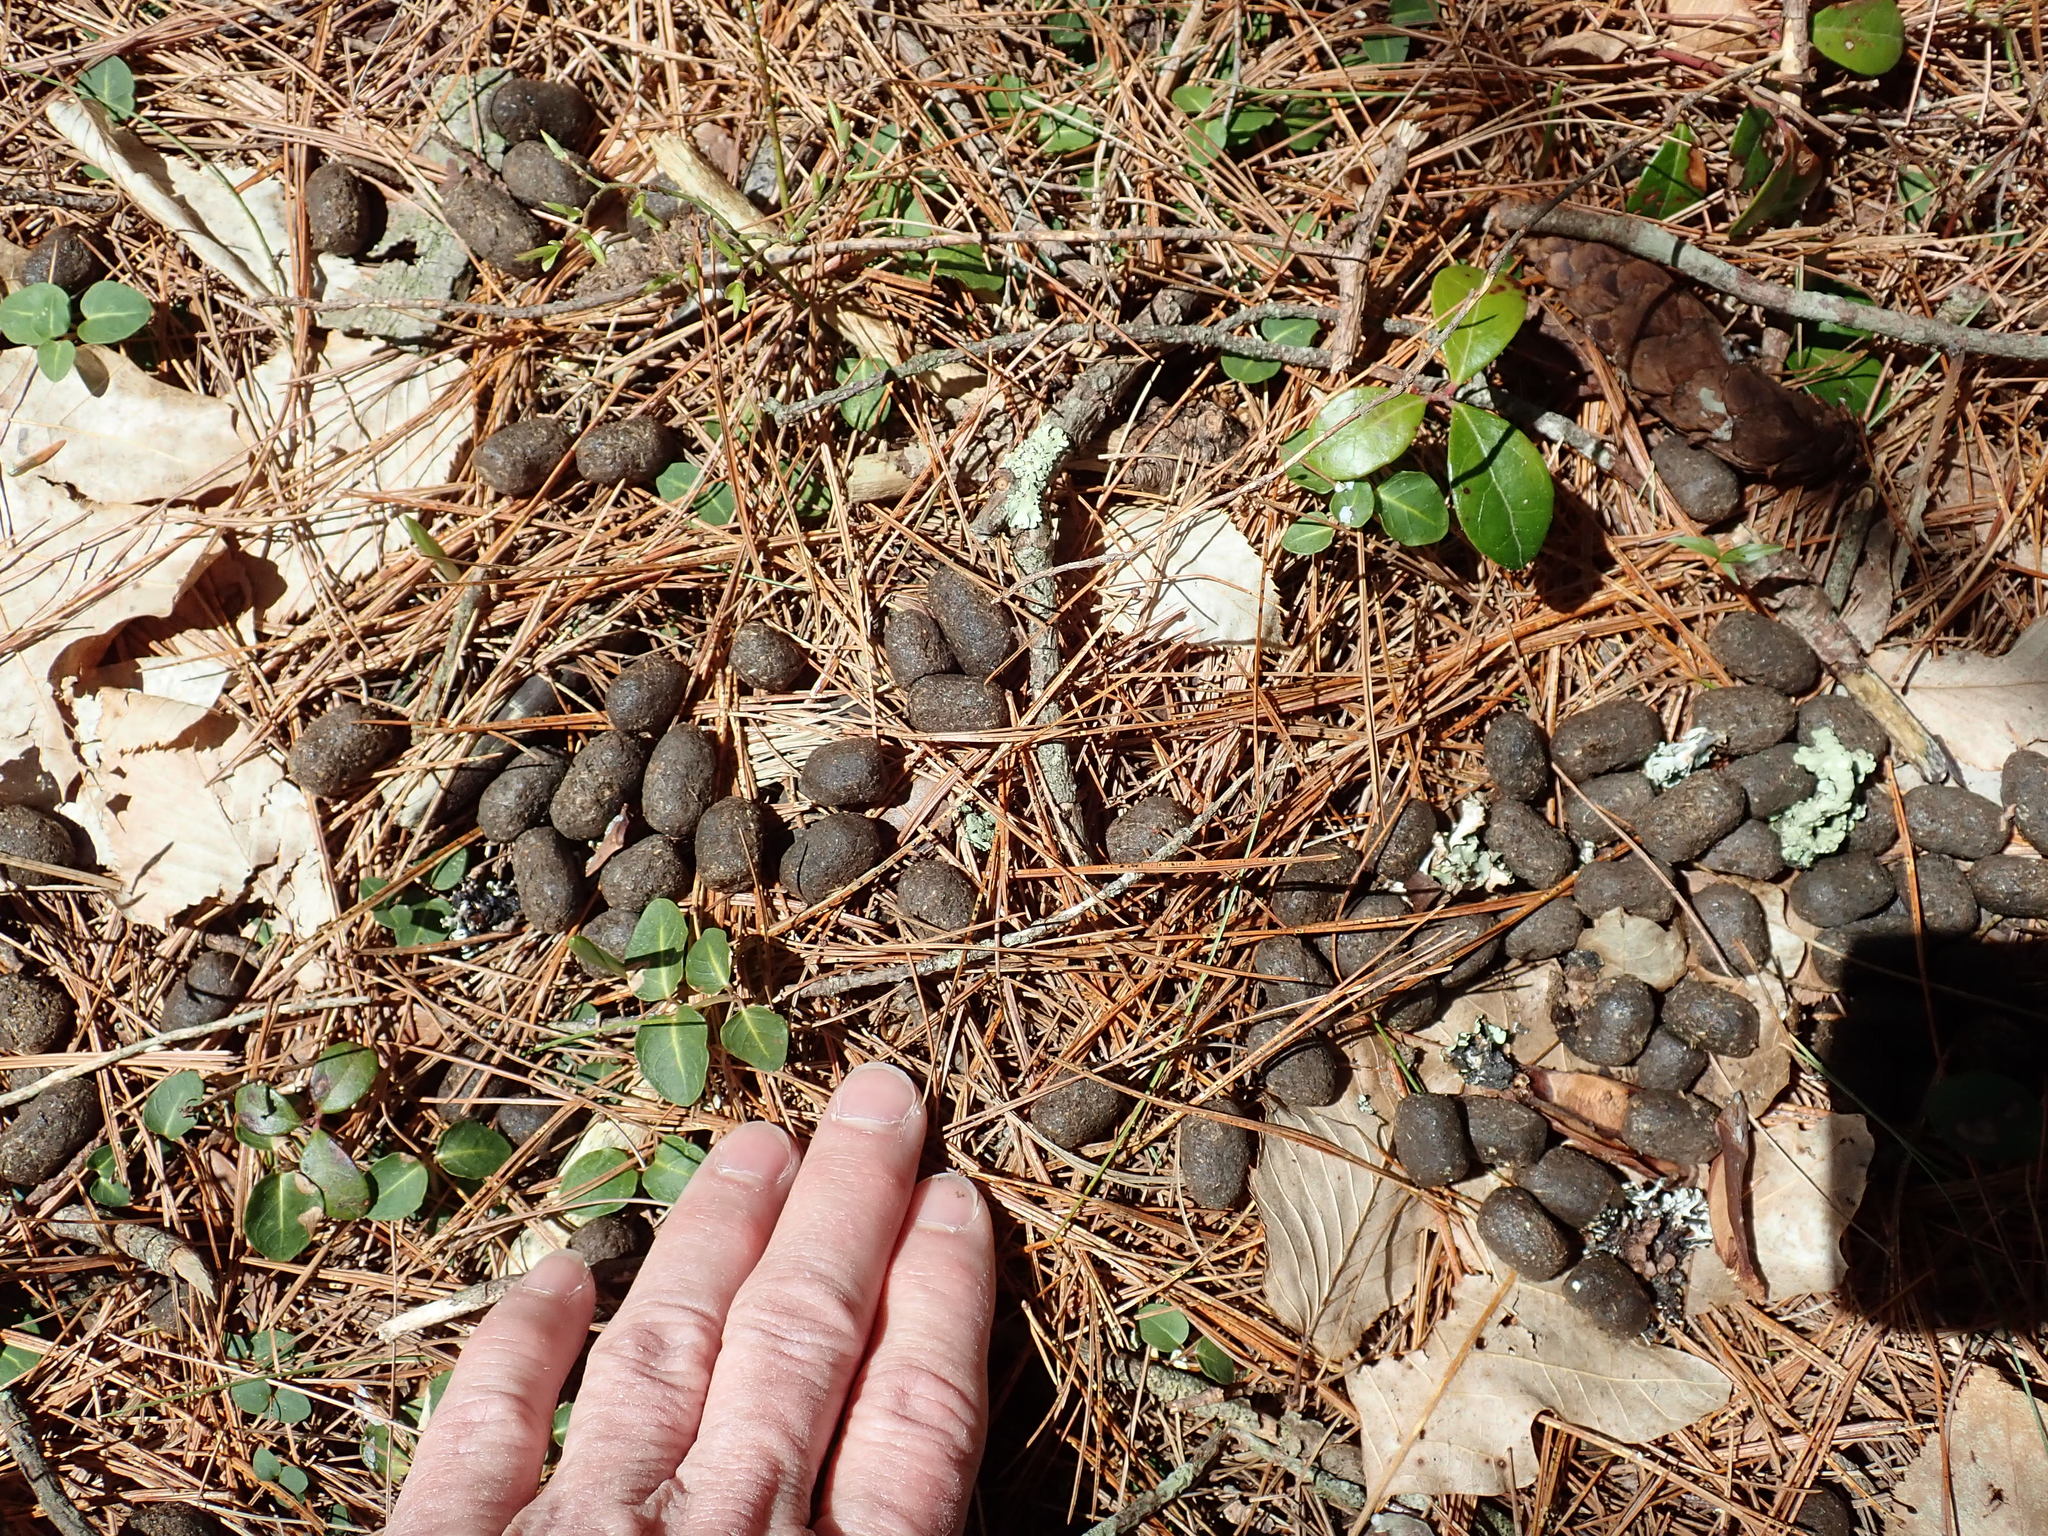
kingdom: Animalia
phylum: Chordata
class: Mammalia
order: Artiodactyla
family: Cervidae
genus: Odocoileus
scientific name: Odocoileus virginianus
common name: White-tailed deer
